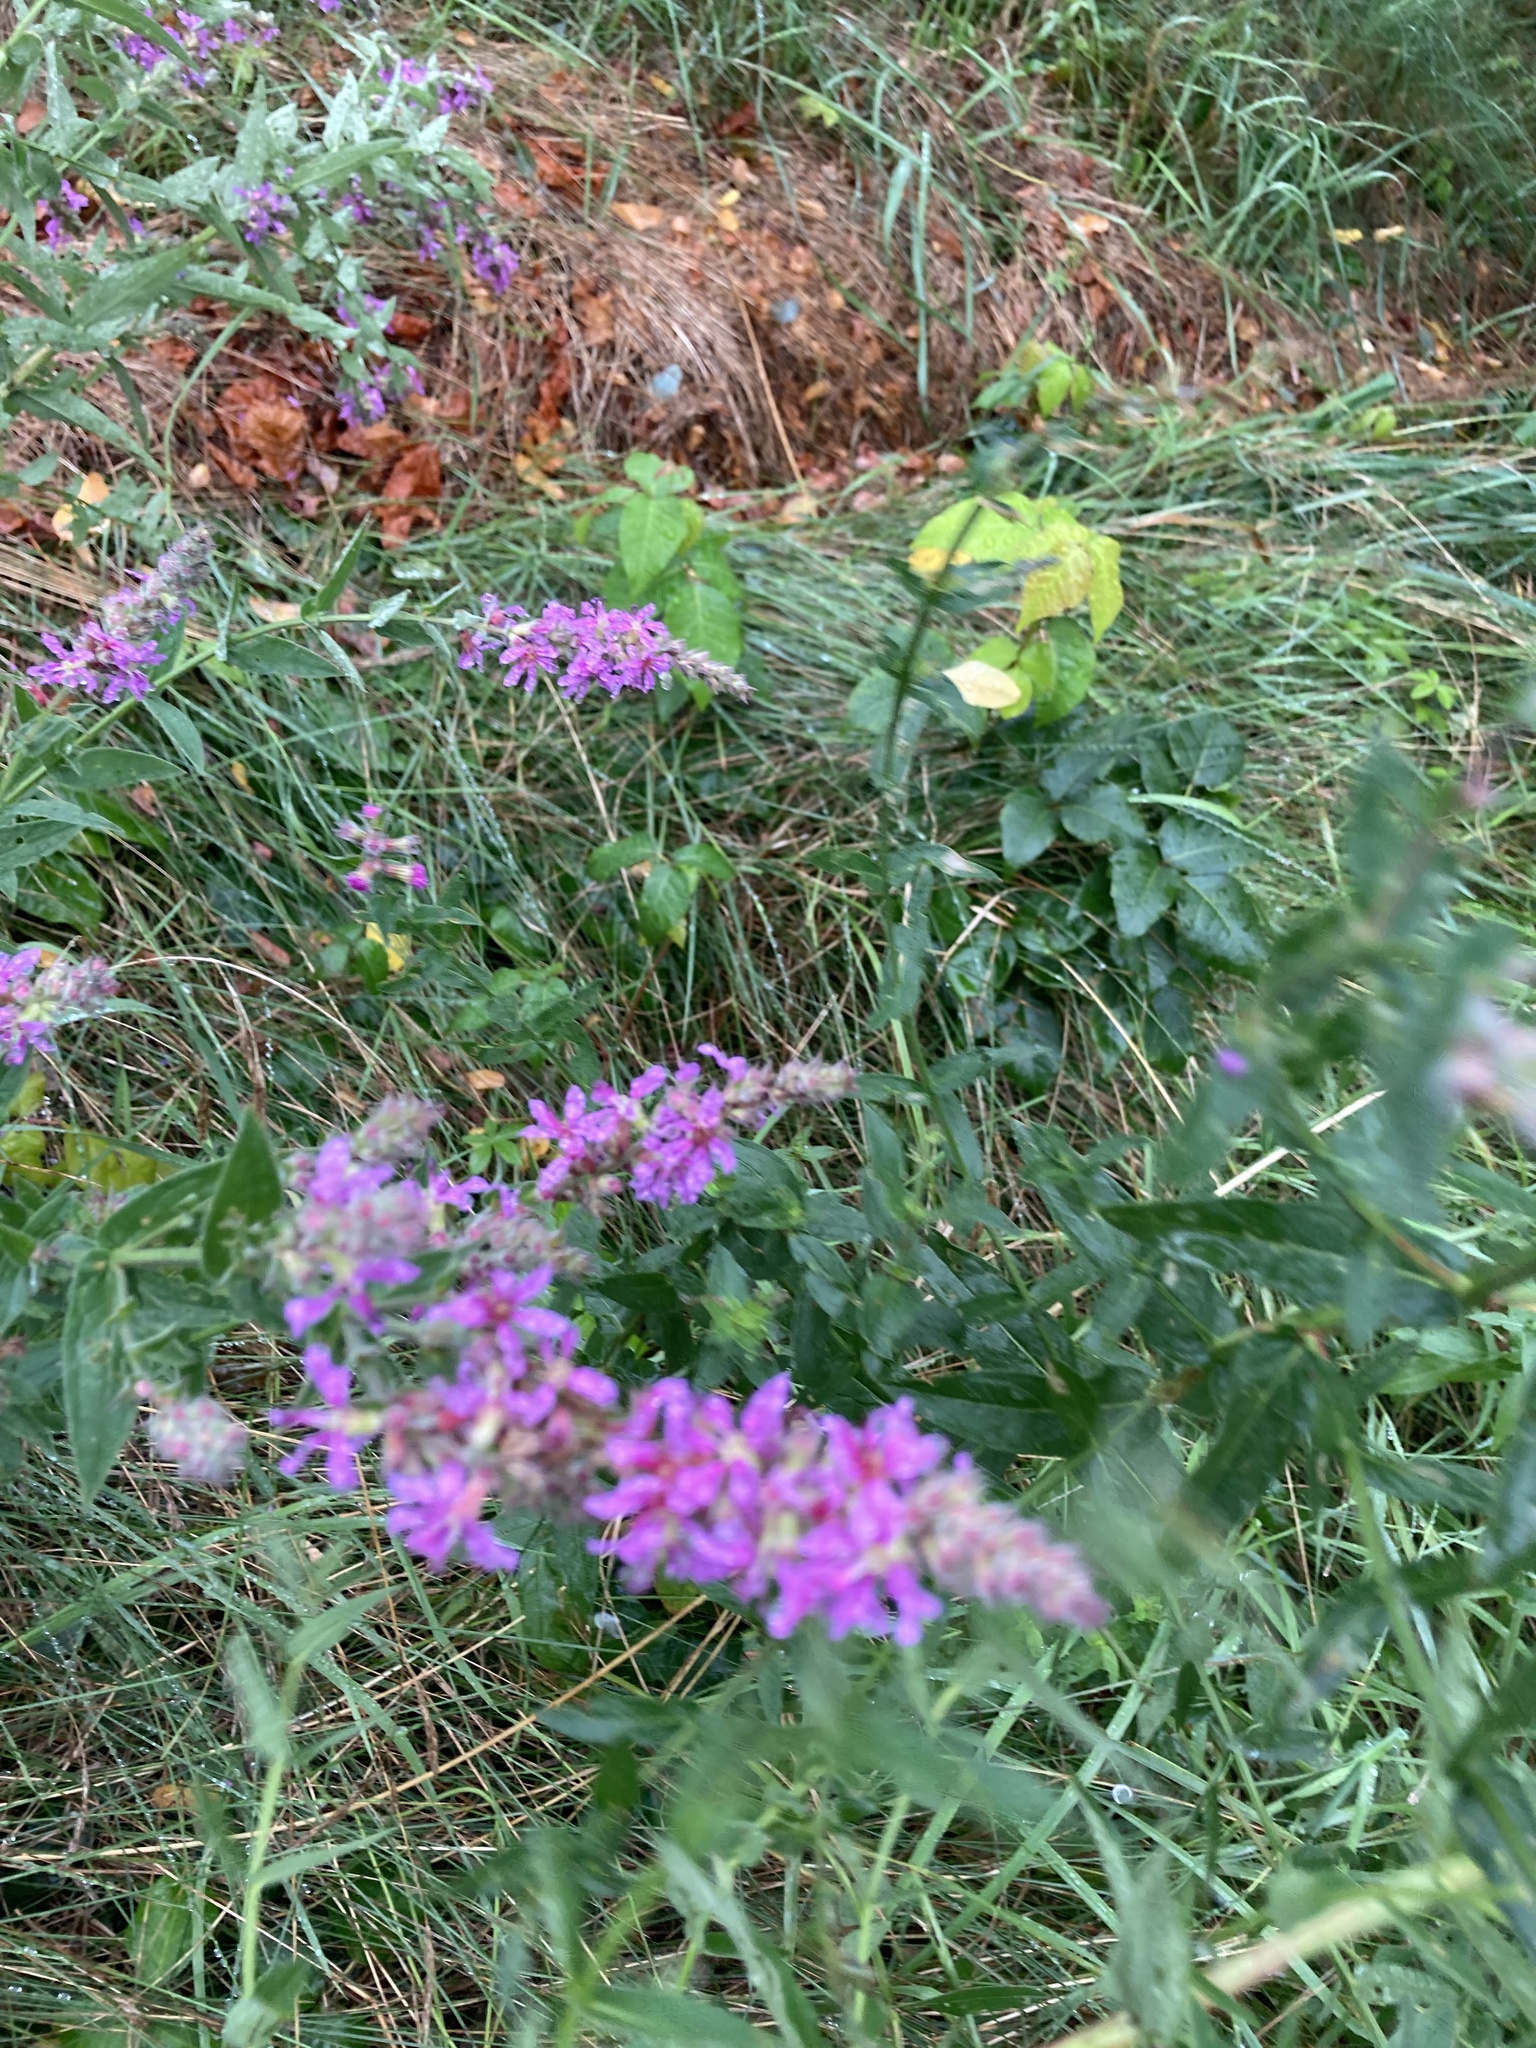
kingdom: Plantae
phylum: Tracheophyta
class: Magnoliopsida
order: Myrtales
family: Lythraceae
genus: Lythrum
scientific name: Lythrum salicaria
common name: Purple loosestrife
